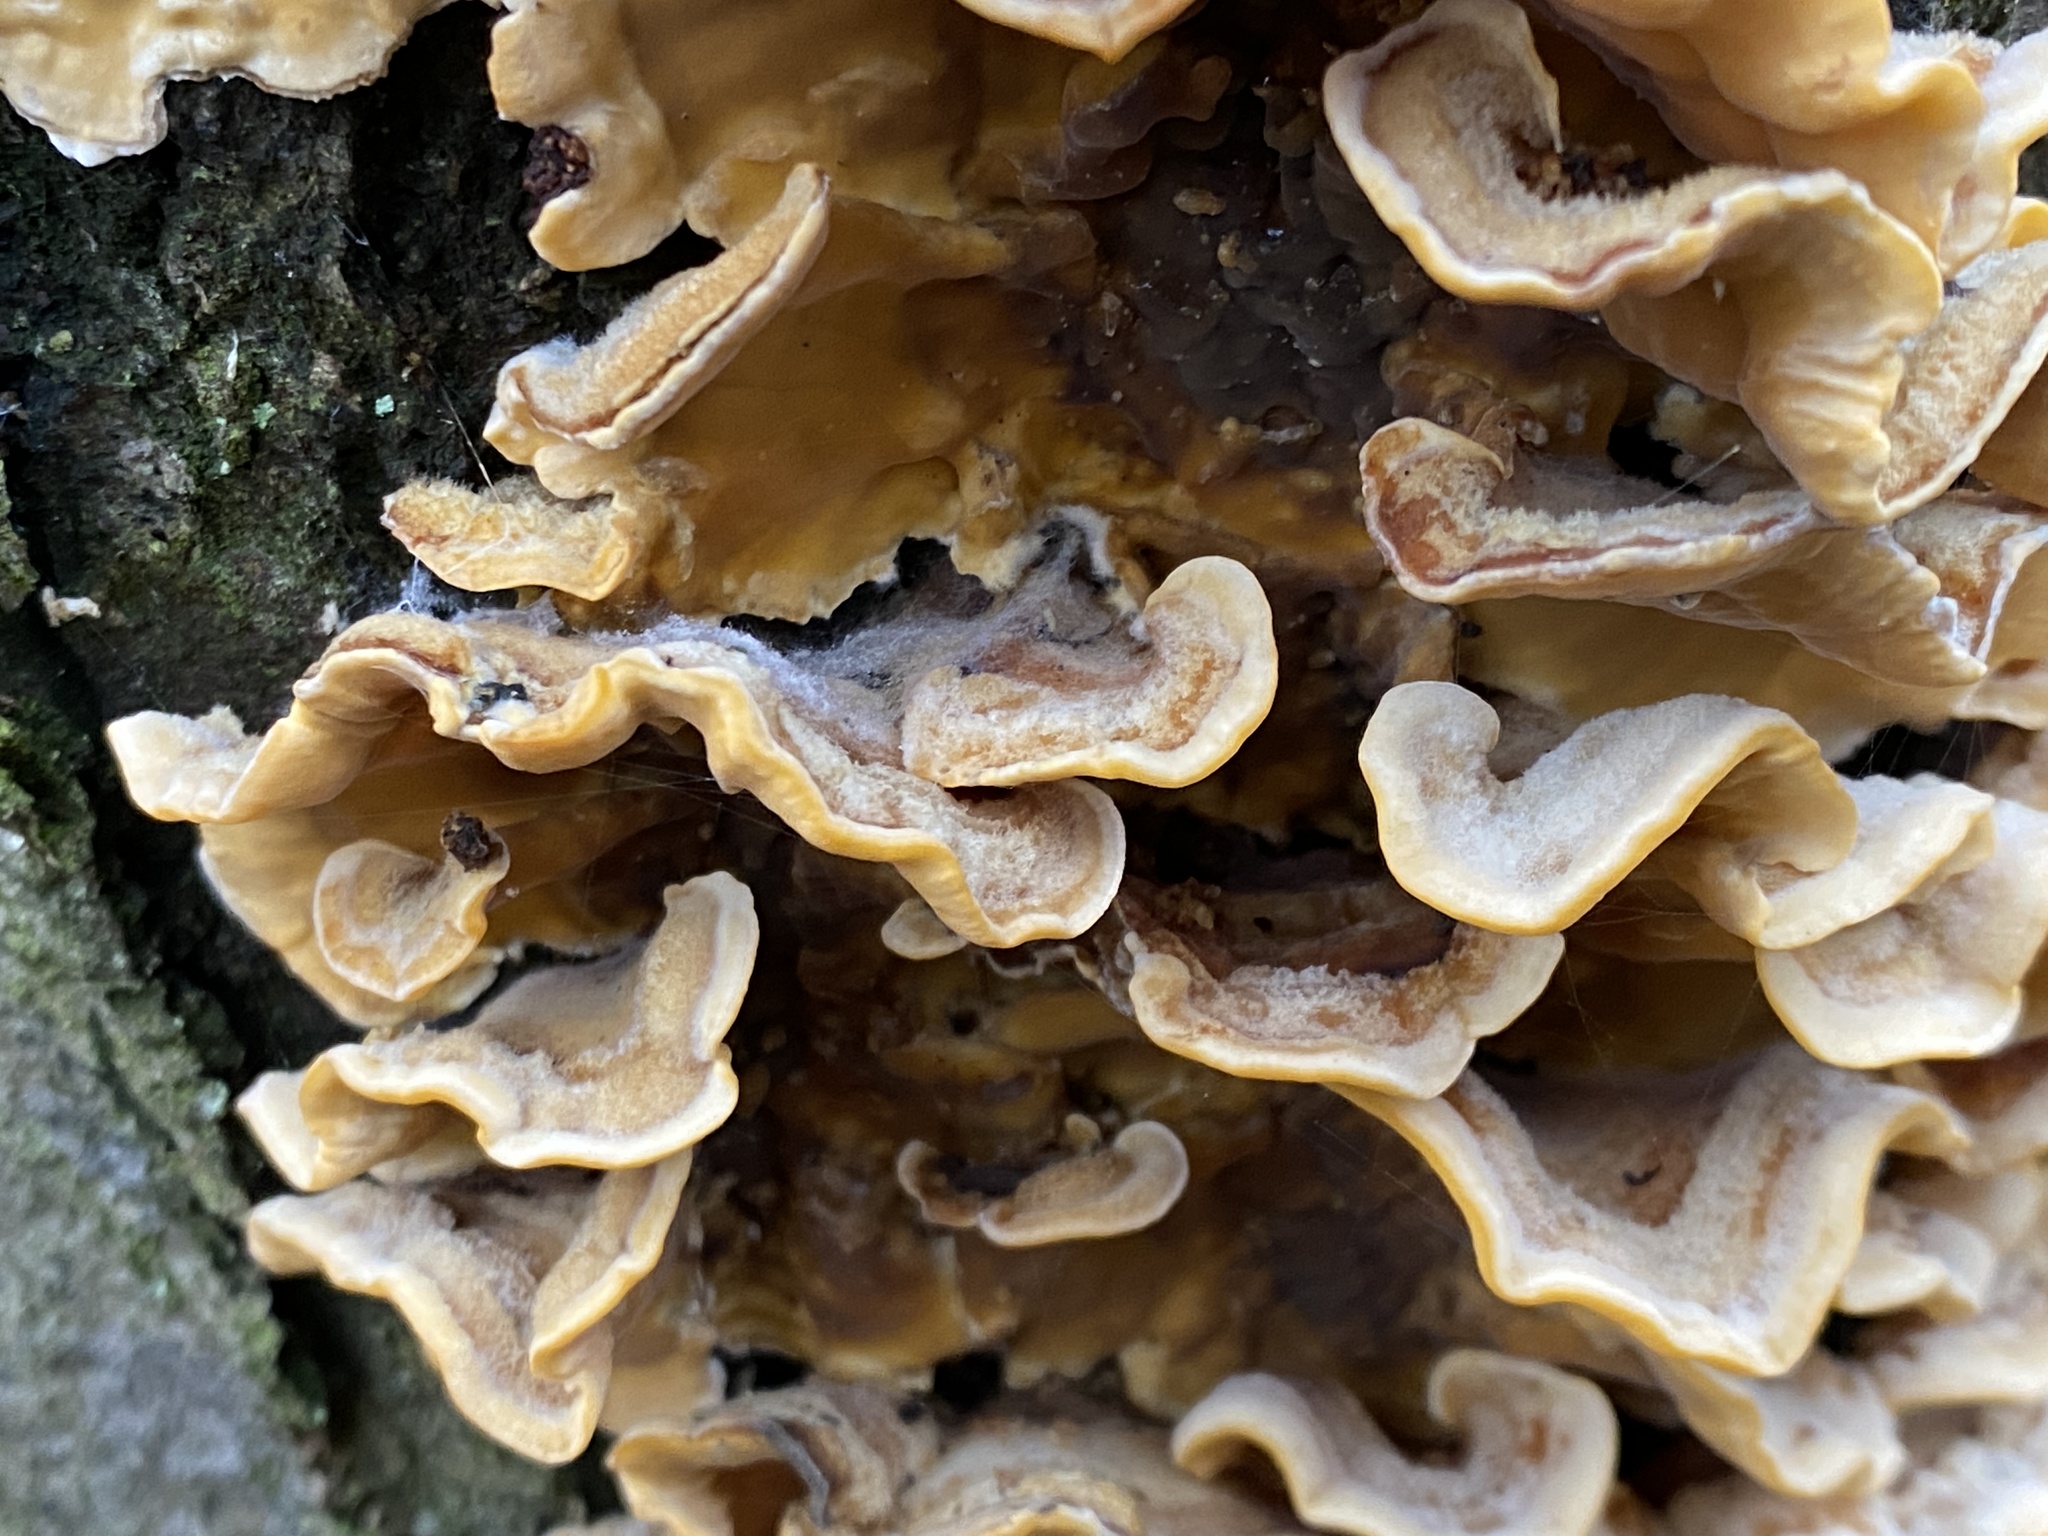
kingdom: Fungi
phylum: Basidiomycota
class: Agaricomycetes
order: Russulales
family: Stereaceae
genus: Stereum
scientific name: Stereum hirsutum
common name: Hairy curtain crust
